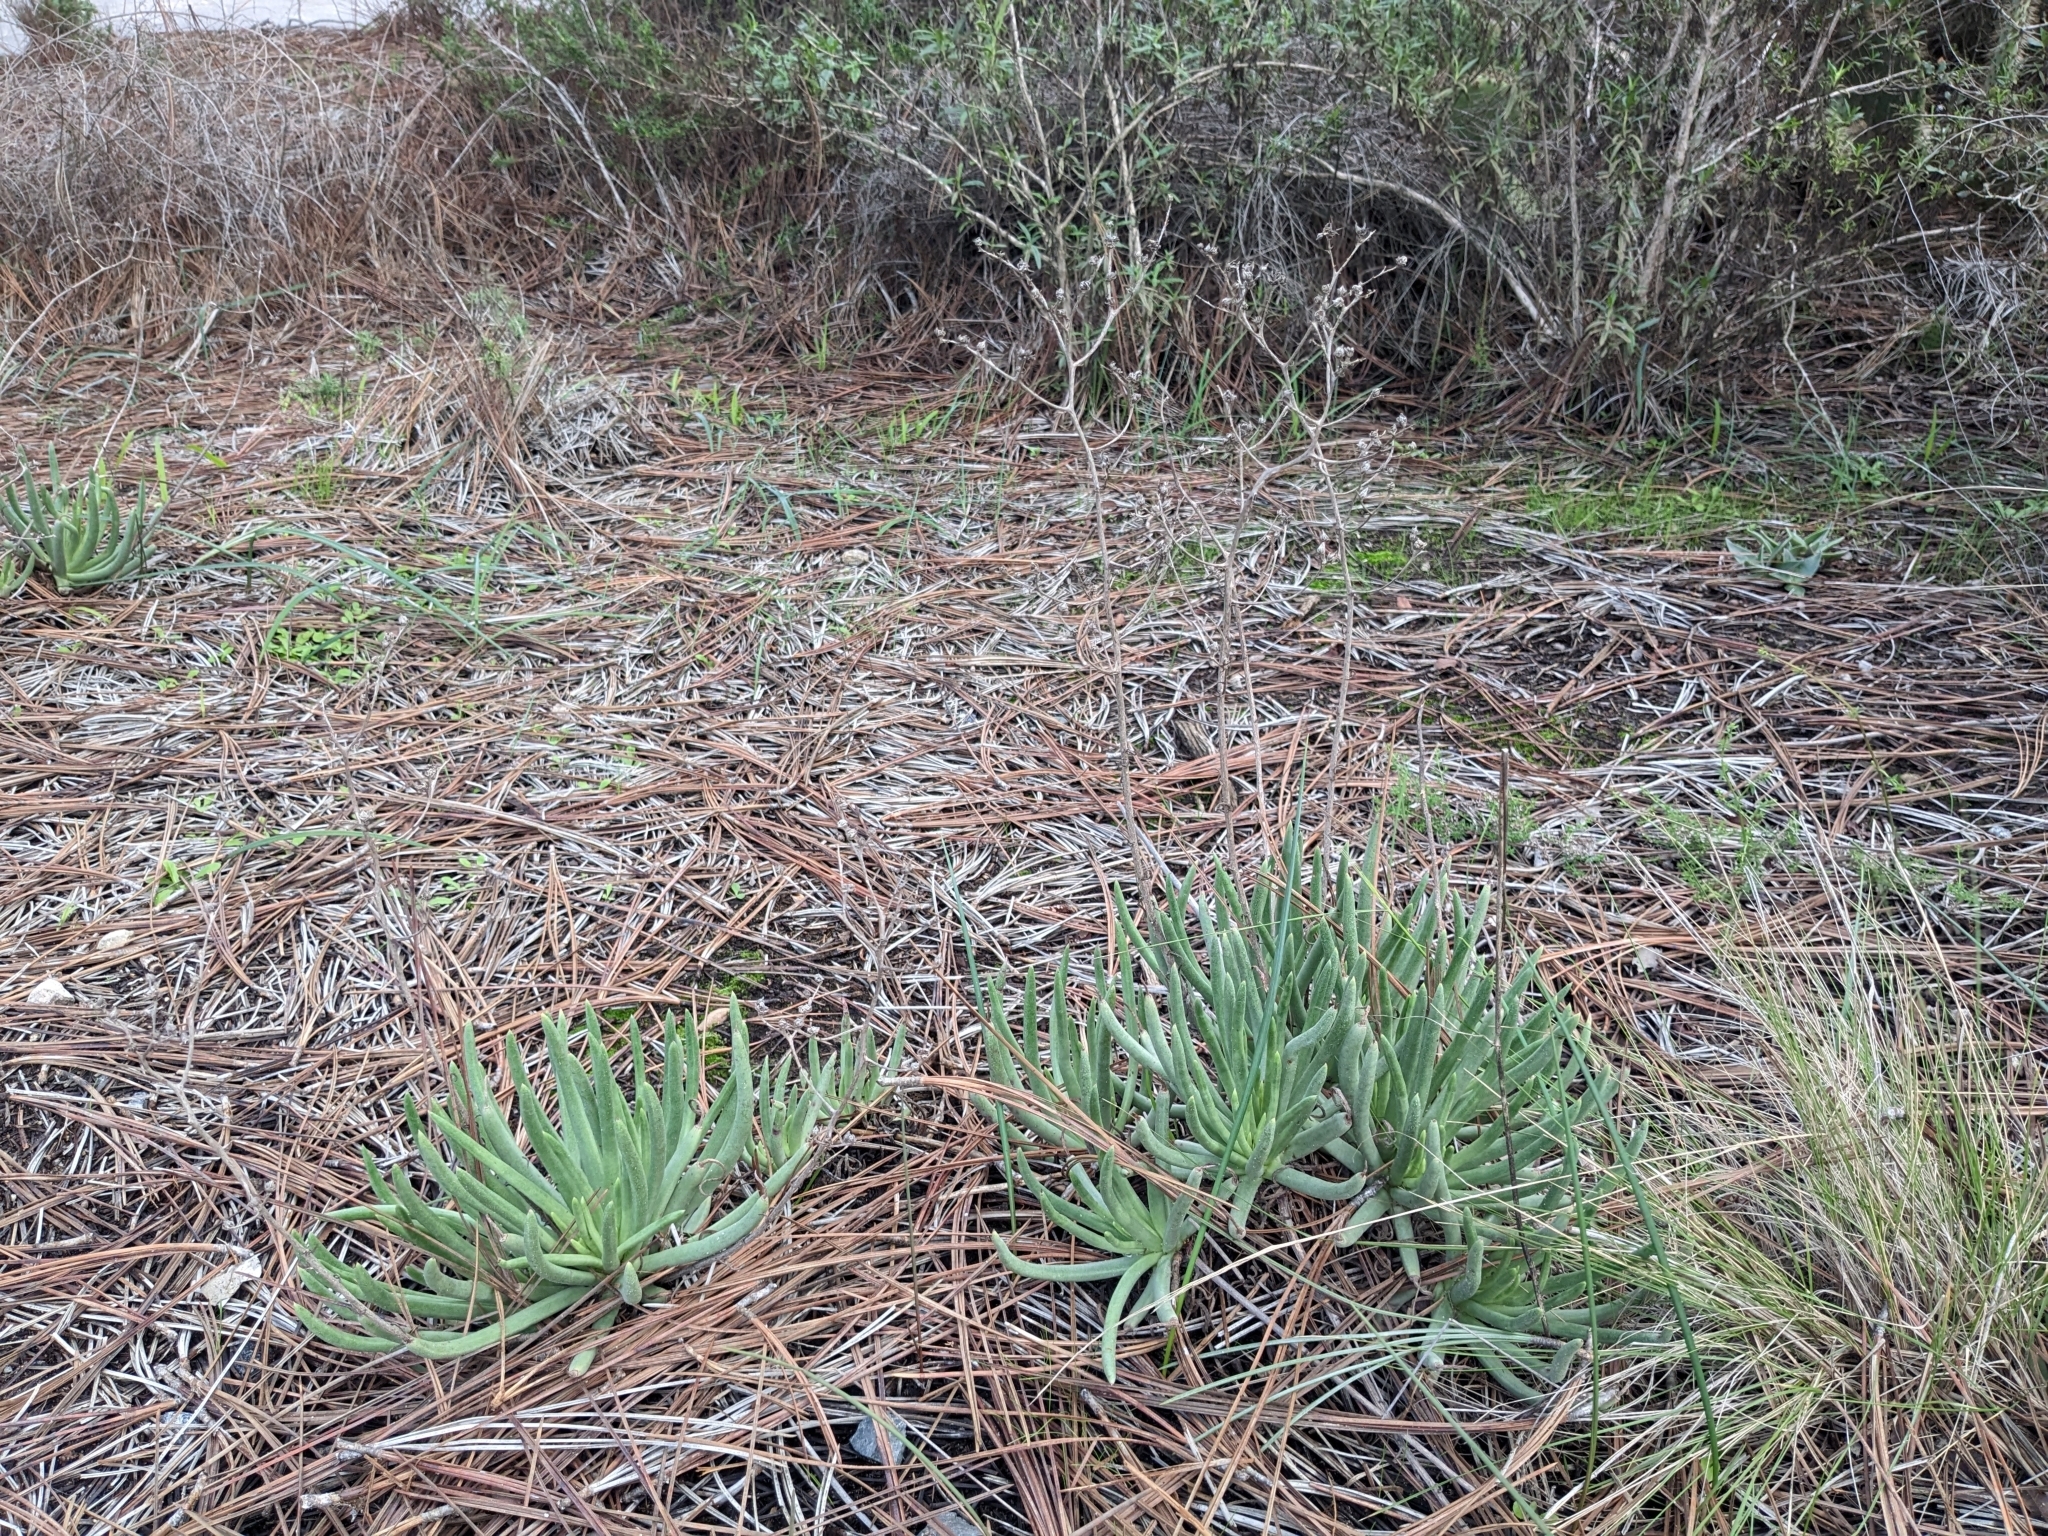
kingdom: Plantae
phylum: Tracheophyta
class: Magnoliopsida
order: Saxifragales
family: Crassulaceae
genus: Dudleya
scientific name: Dudleya edulis
